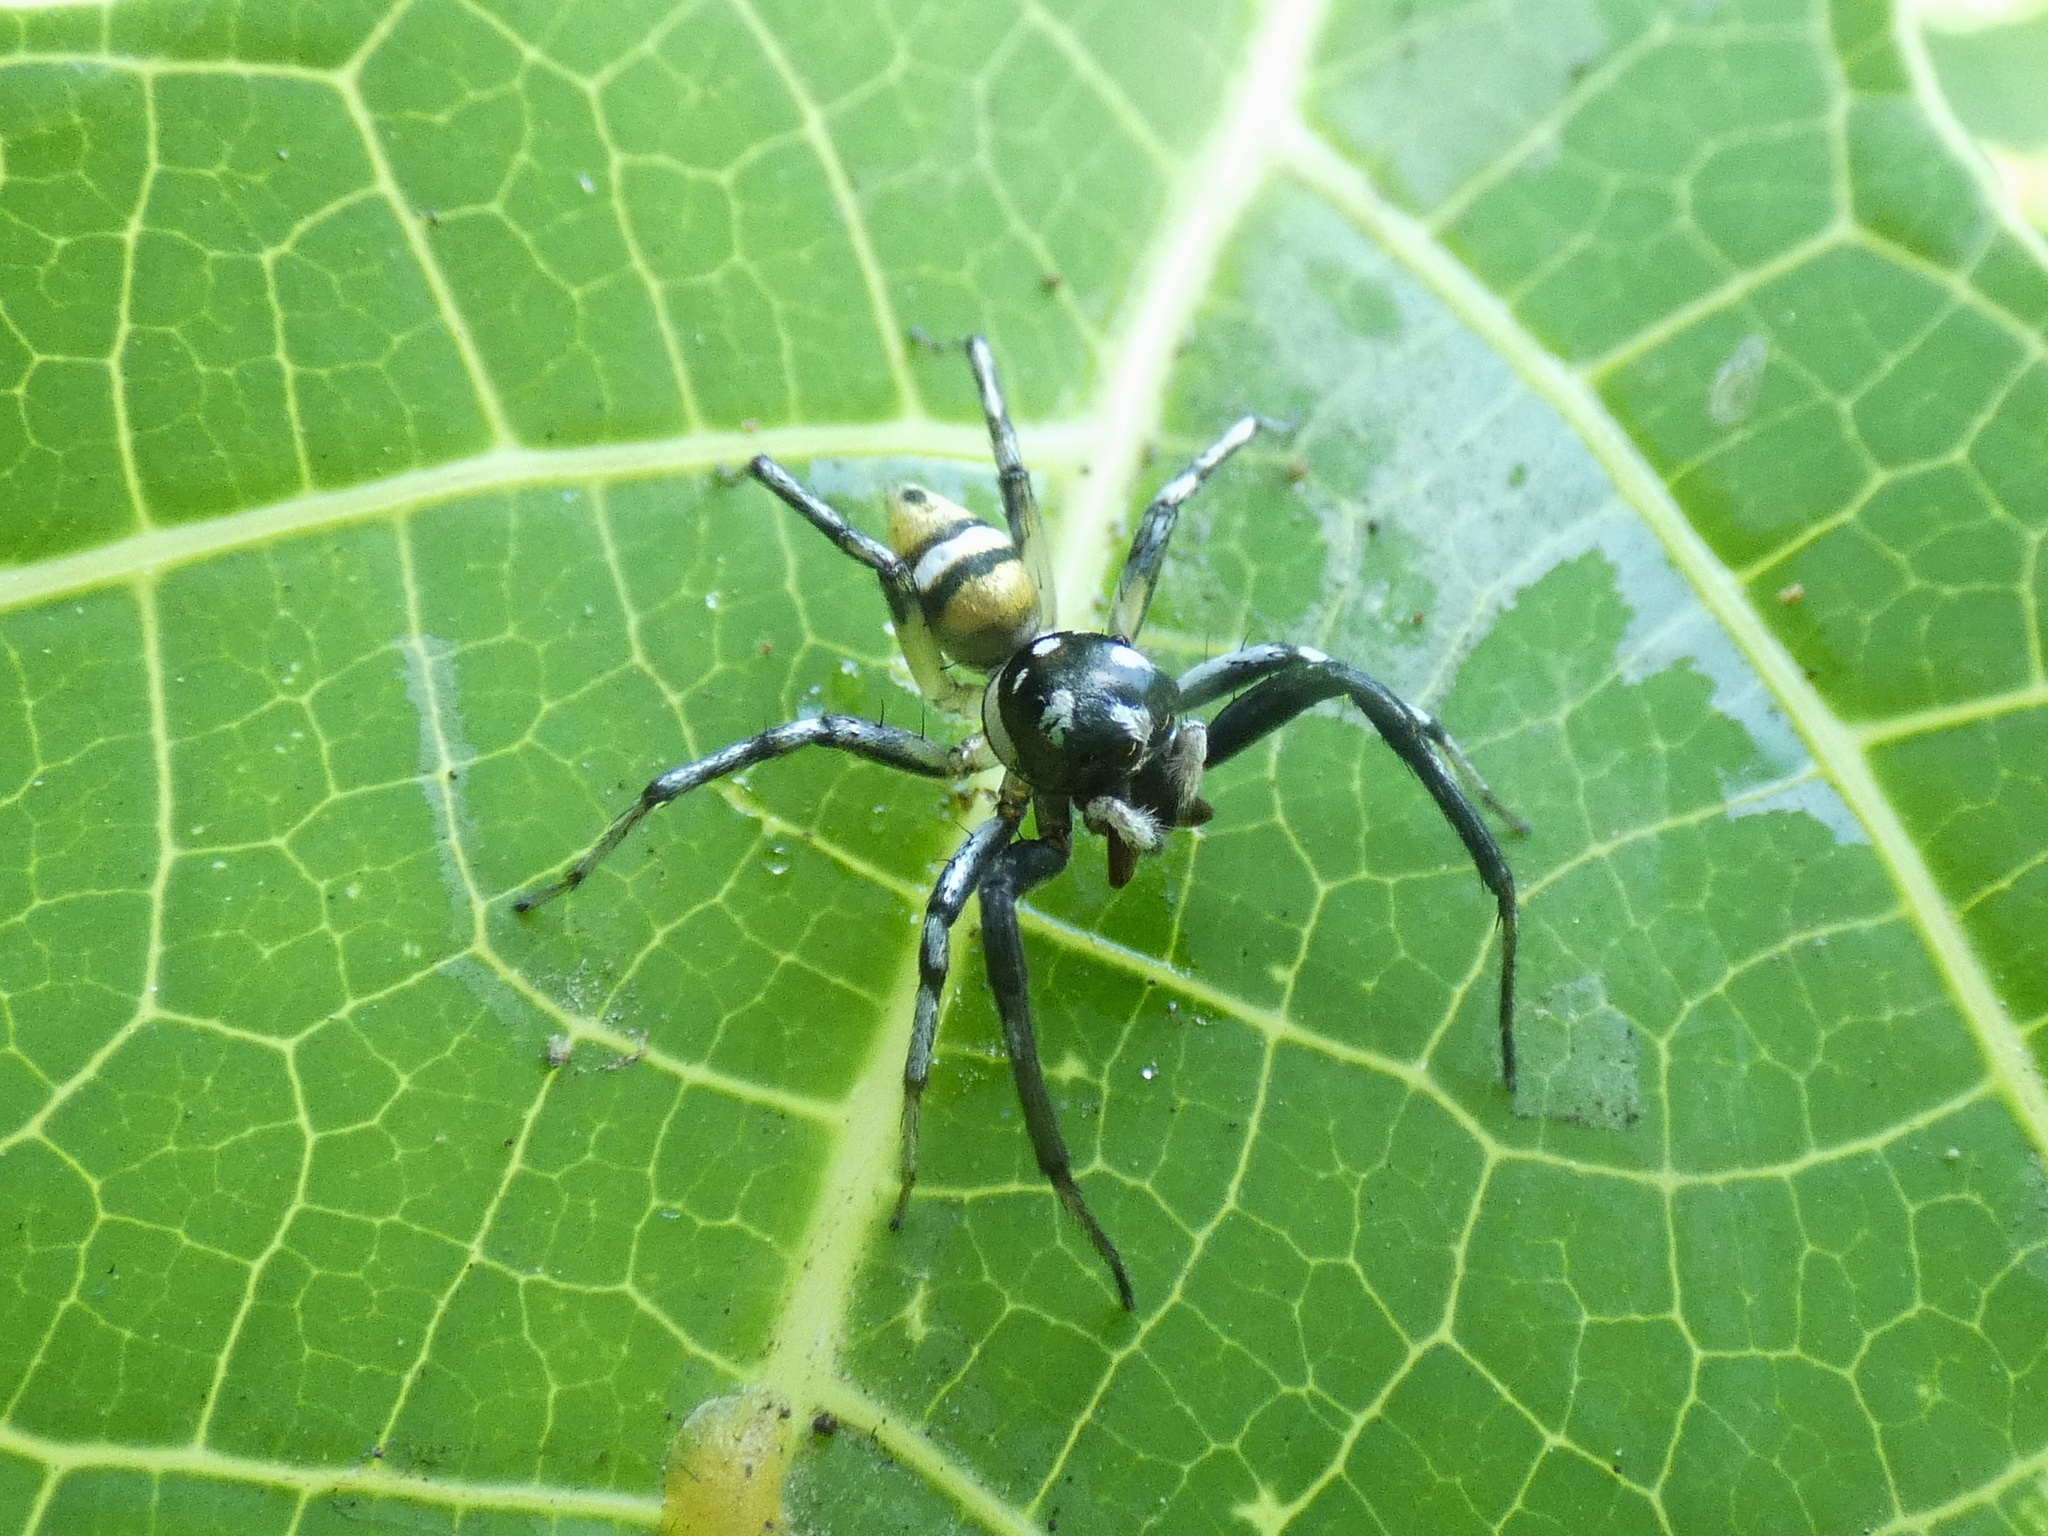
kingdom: Animalia
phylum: Arthropoda
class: Arachnida
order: Araneae
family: Salticidae
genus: Phintella
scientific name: Phintella piatensis
